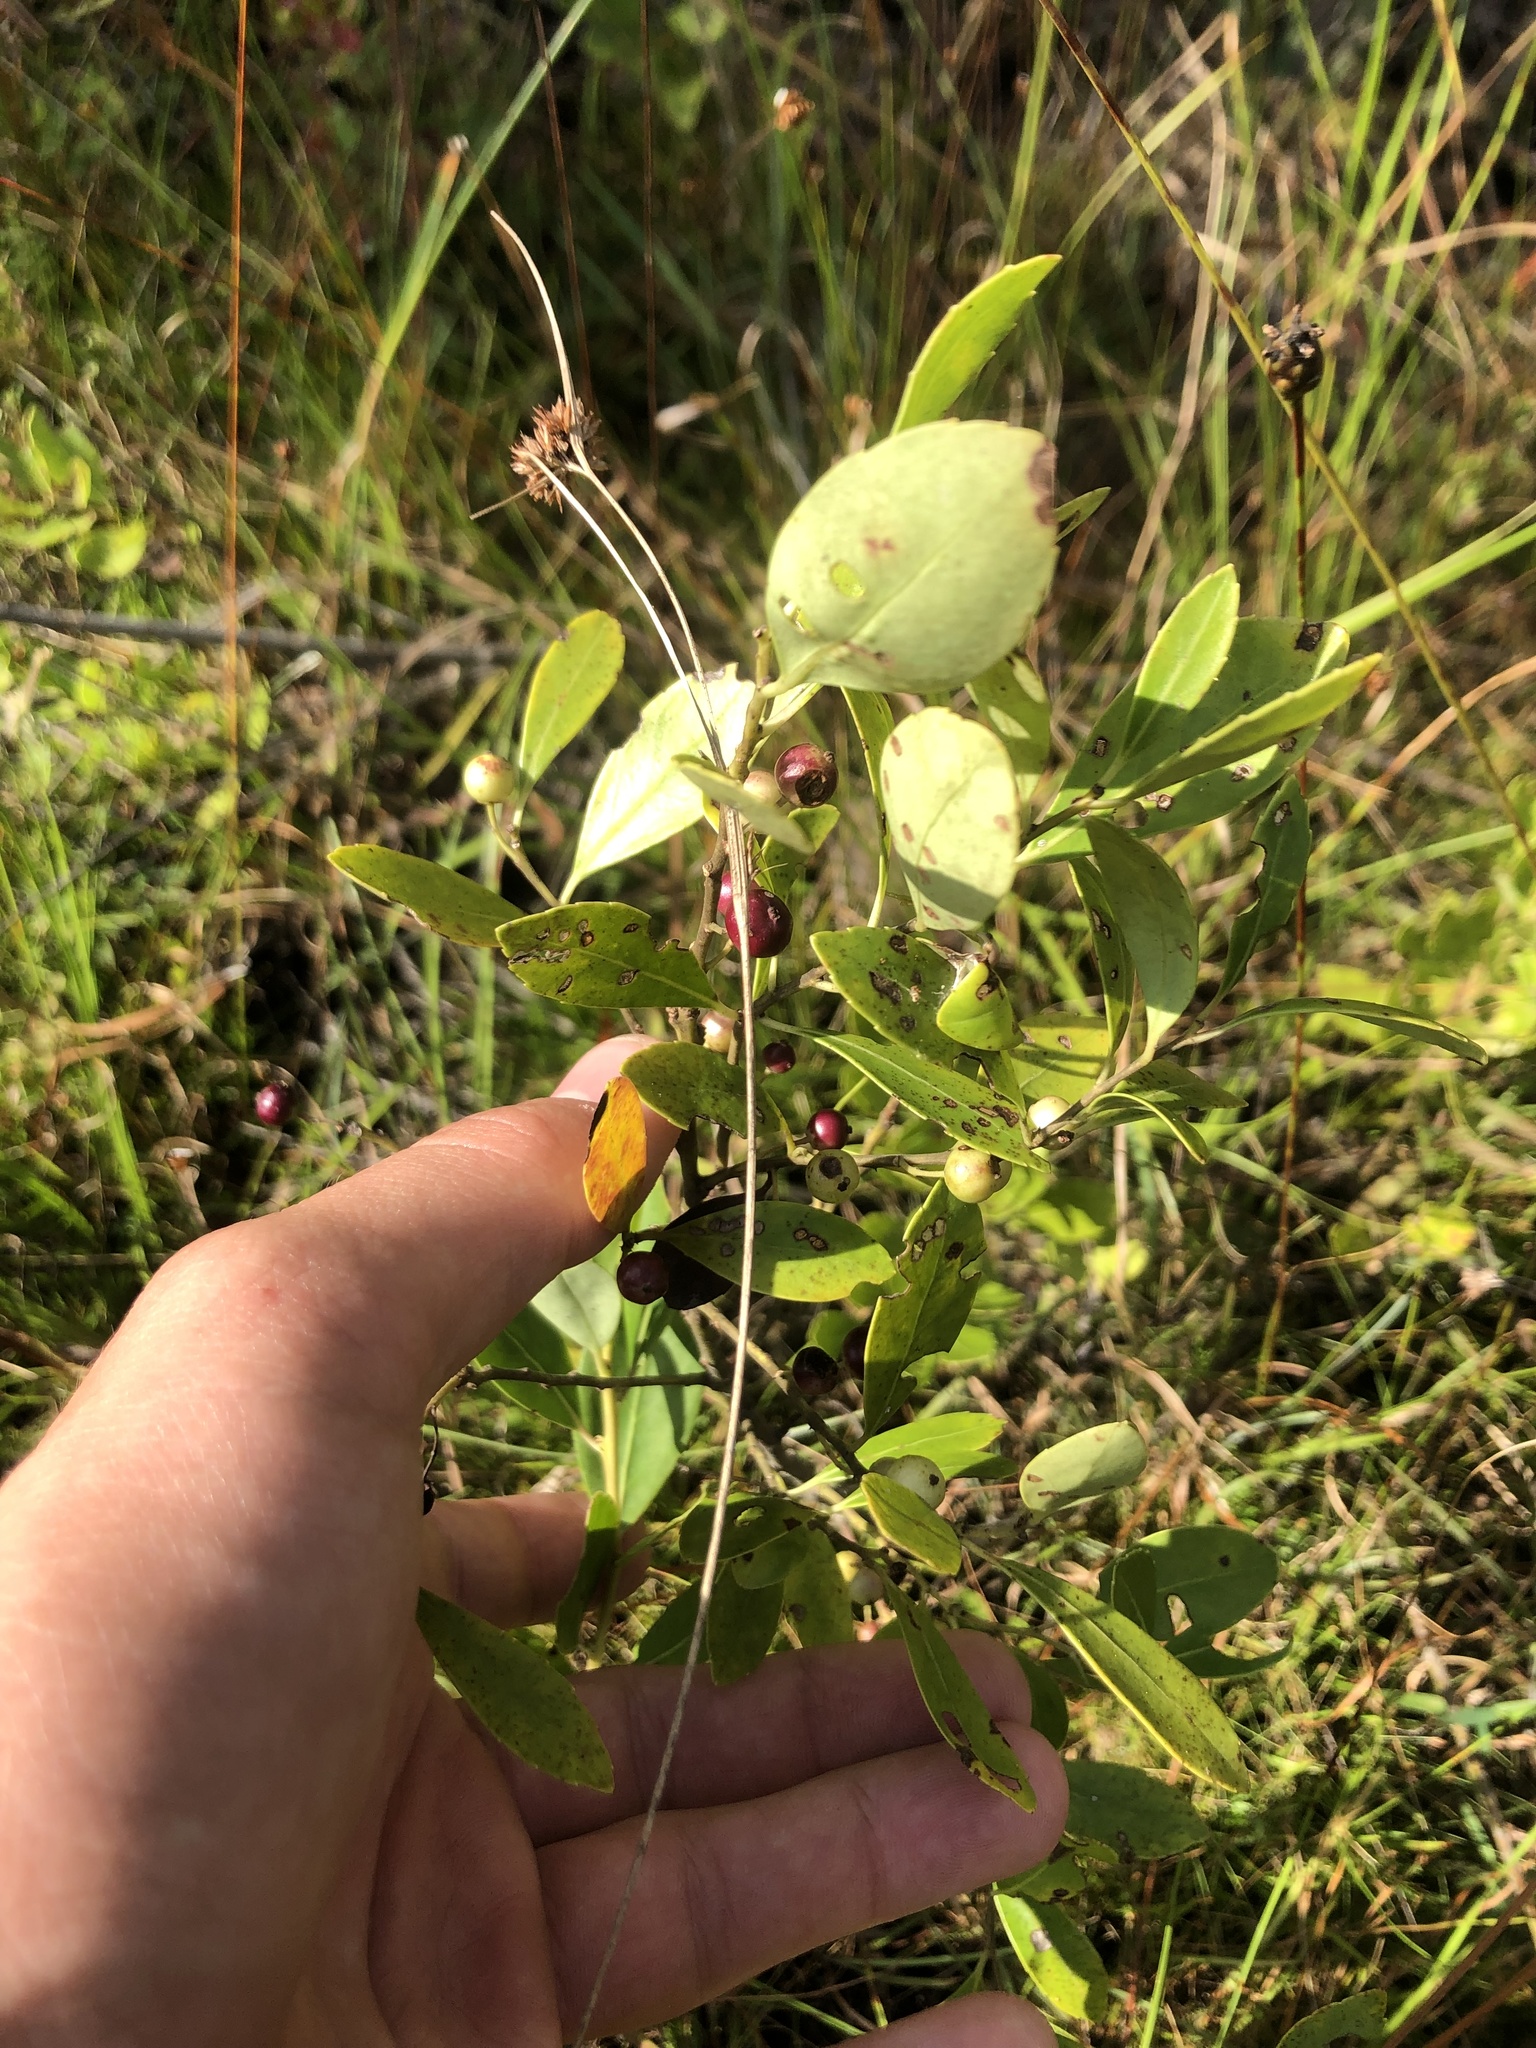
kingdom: Plantae
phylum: Tracheophyta
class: Magnoliopsida
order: Aquifoliales
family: Aquifoliaceae
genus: Ilex
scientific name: Ilex glabra
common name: Bitter gallberry
